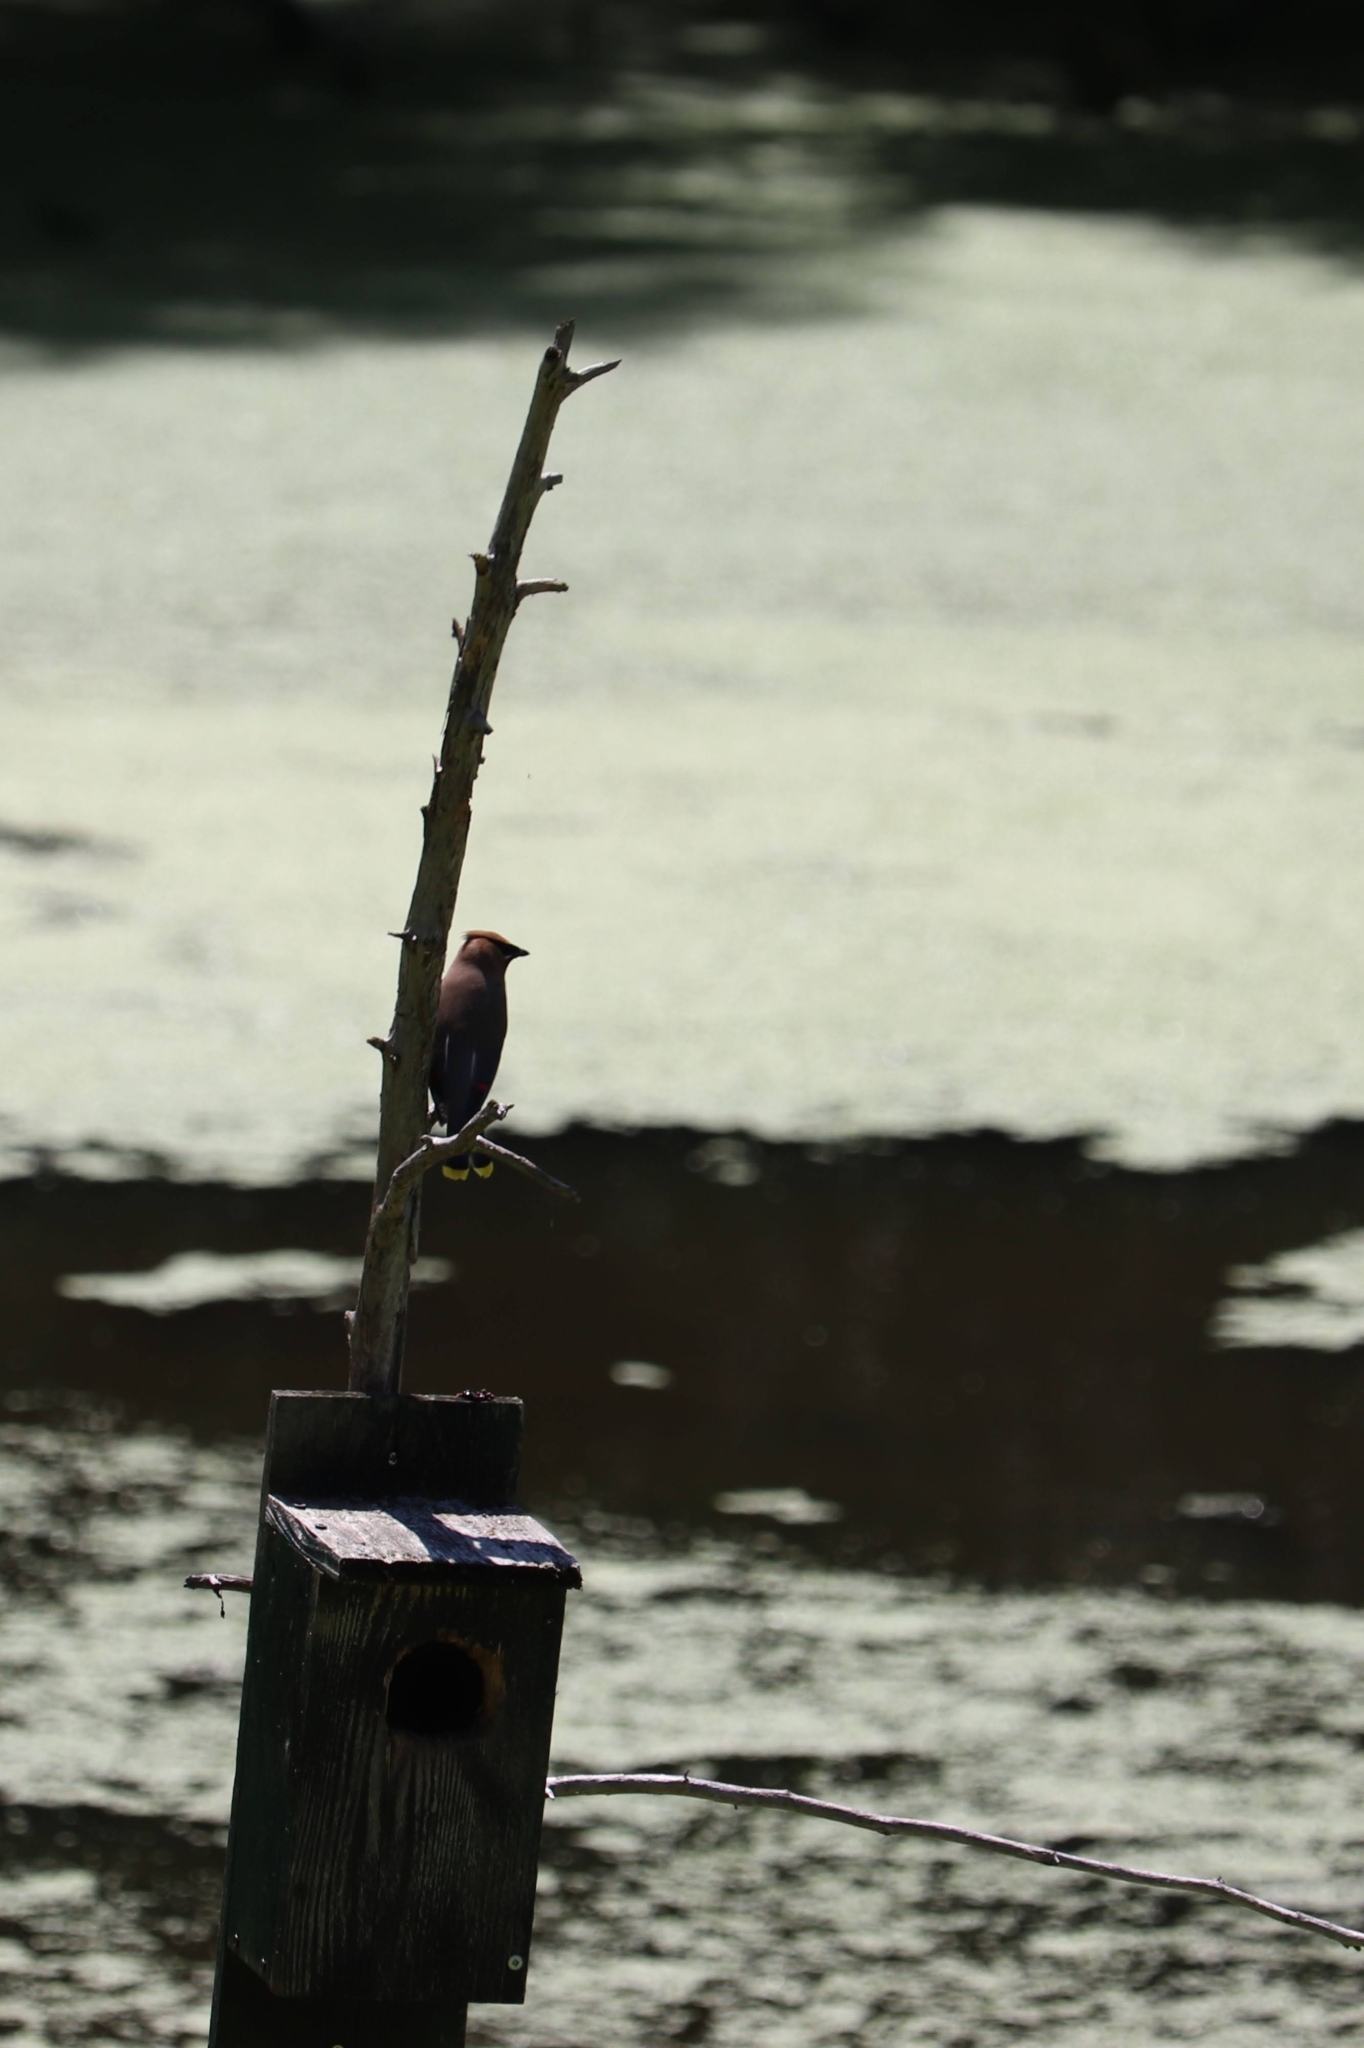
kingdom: Animalia
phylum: Chordata
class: Aves
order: Passeriformes
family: Bombycillidae
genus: Bombycilla
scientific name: Bombycilla cedrorum
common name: Cedar waxwing
